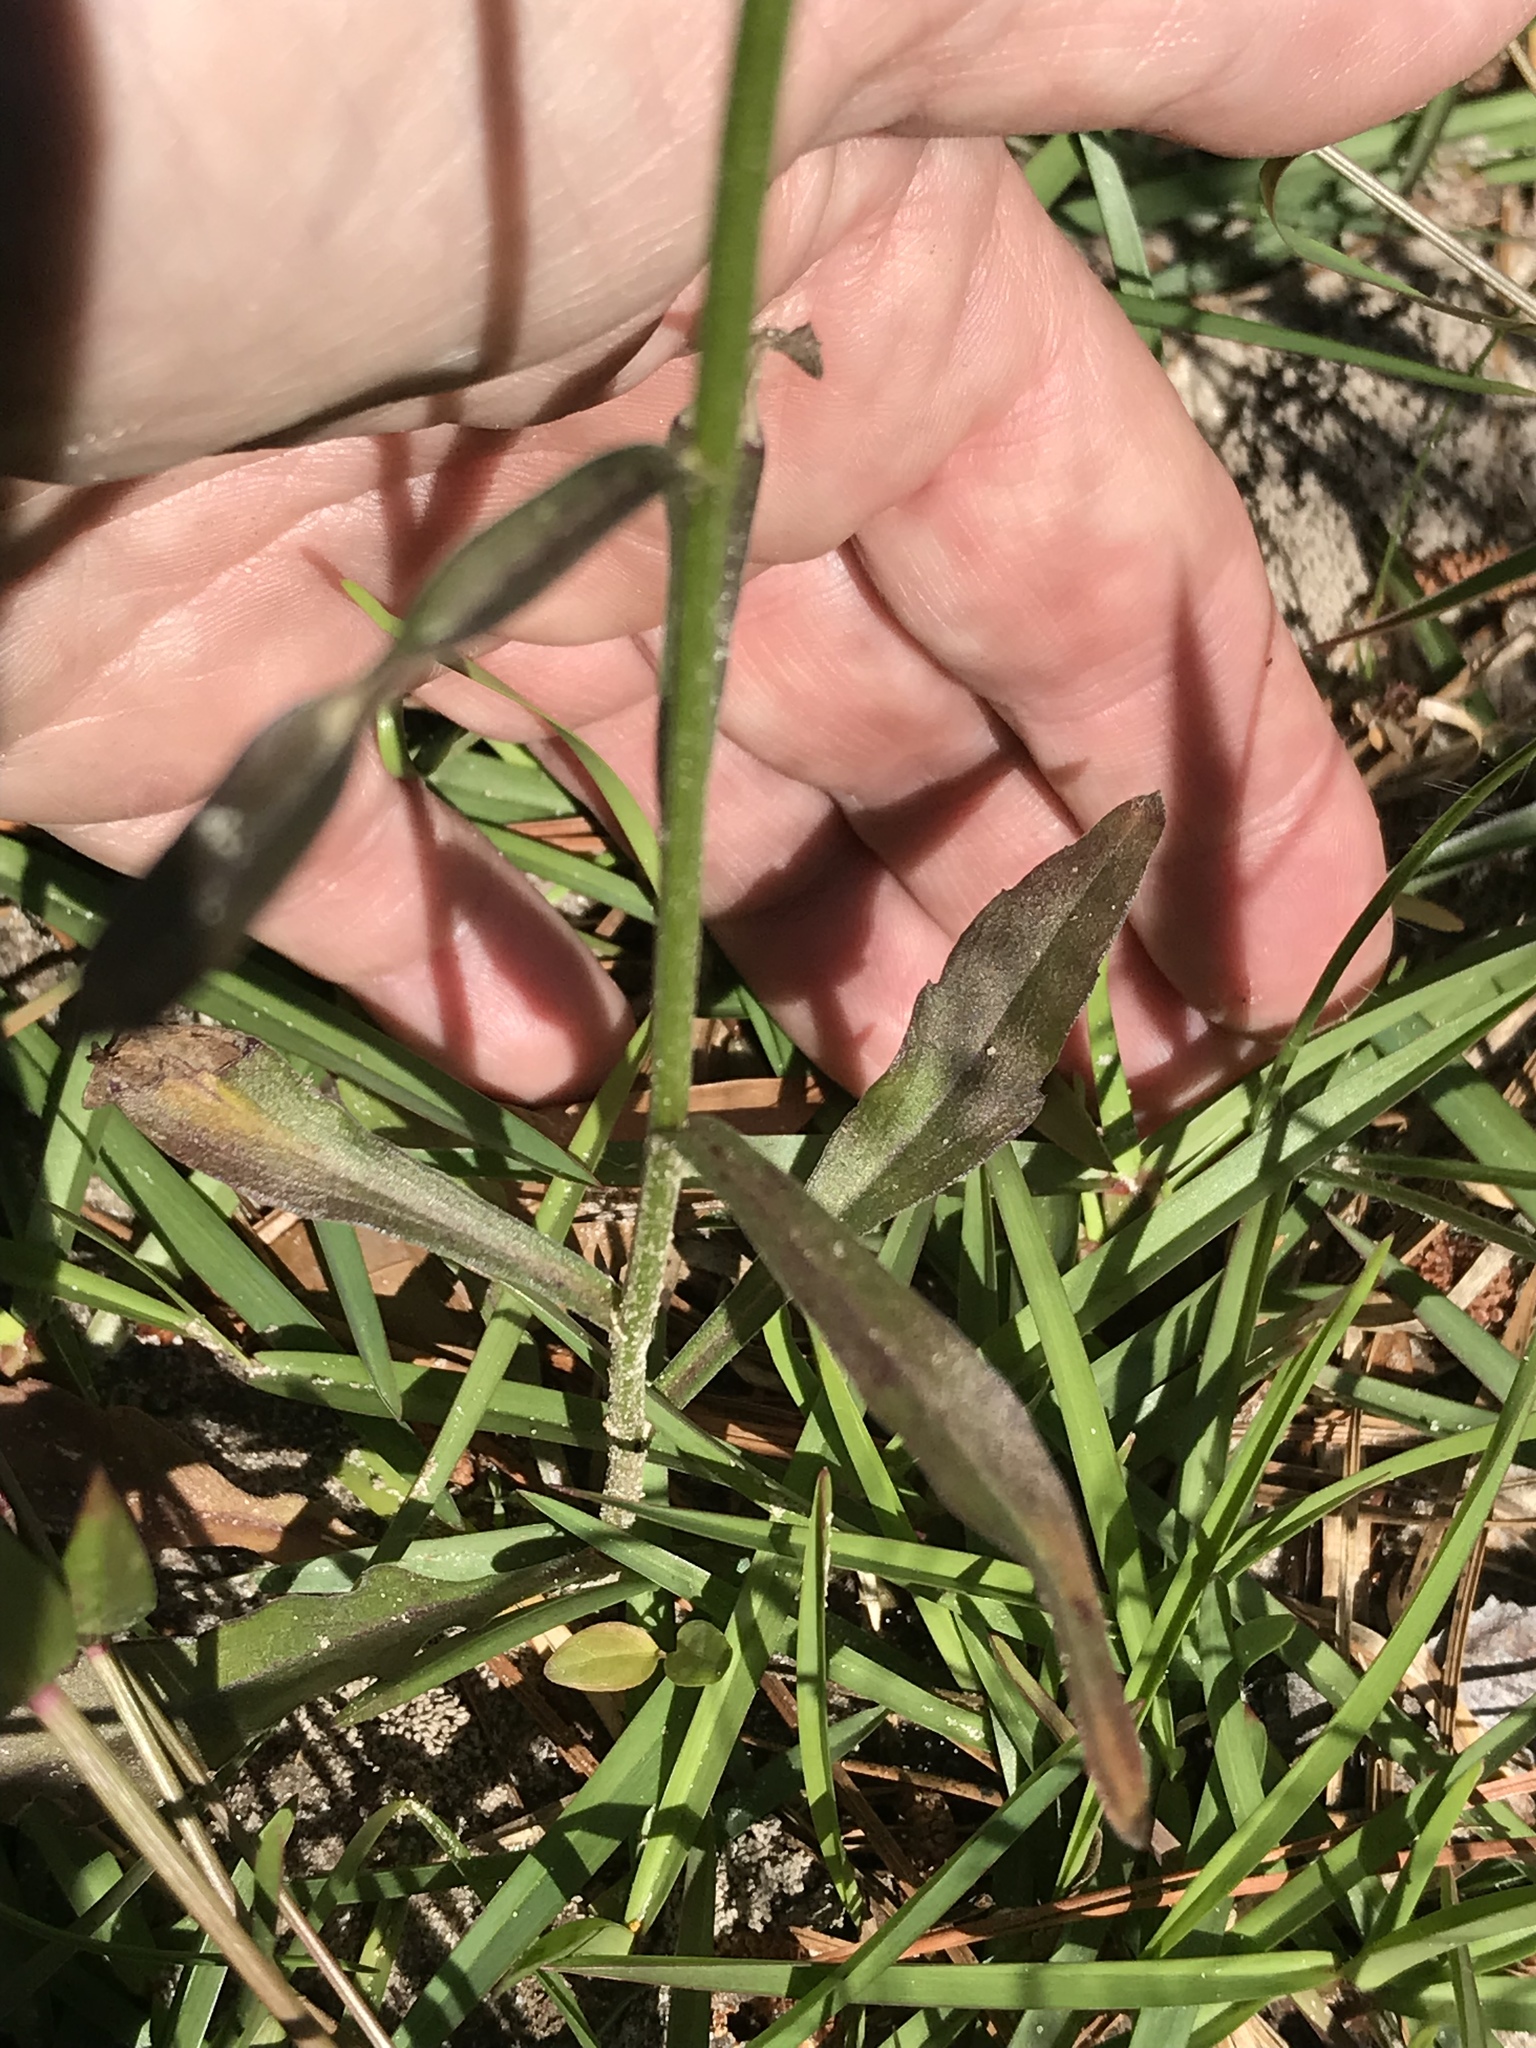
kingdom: Plantae
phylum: Tracheophyta
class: Magnoliopsida
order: Asterales
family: Asteraceae
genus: Erigeron
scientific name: Erigeron strigosus
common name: Common eastern fleabane
